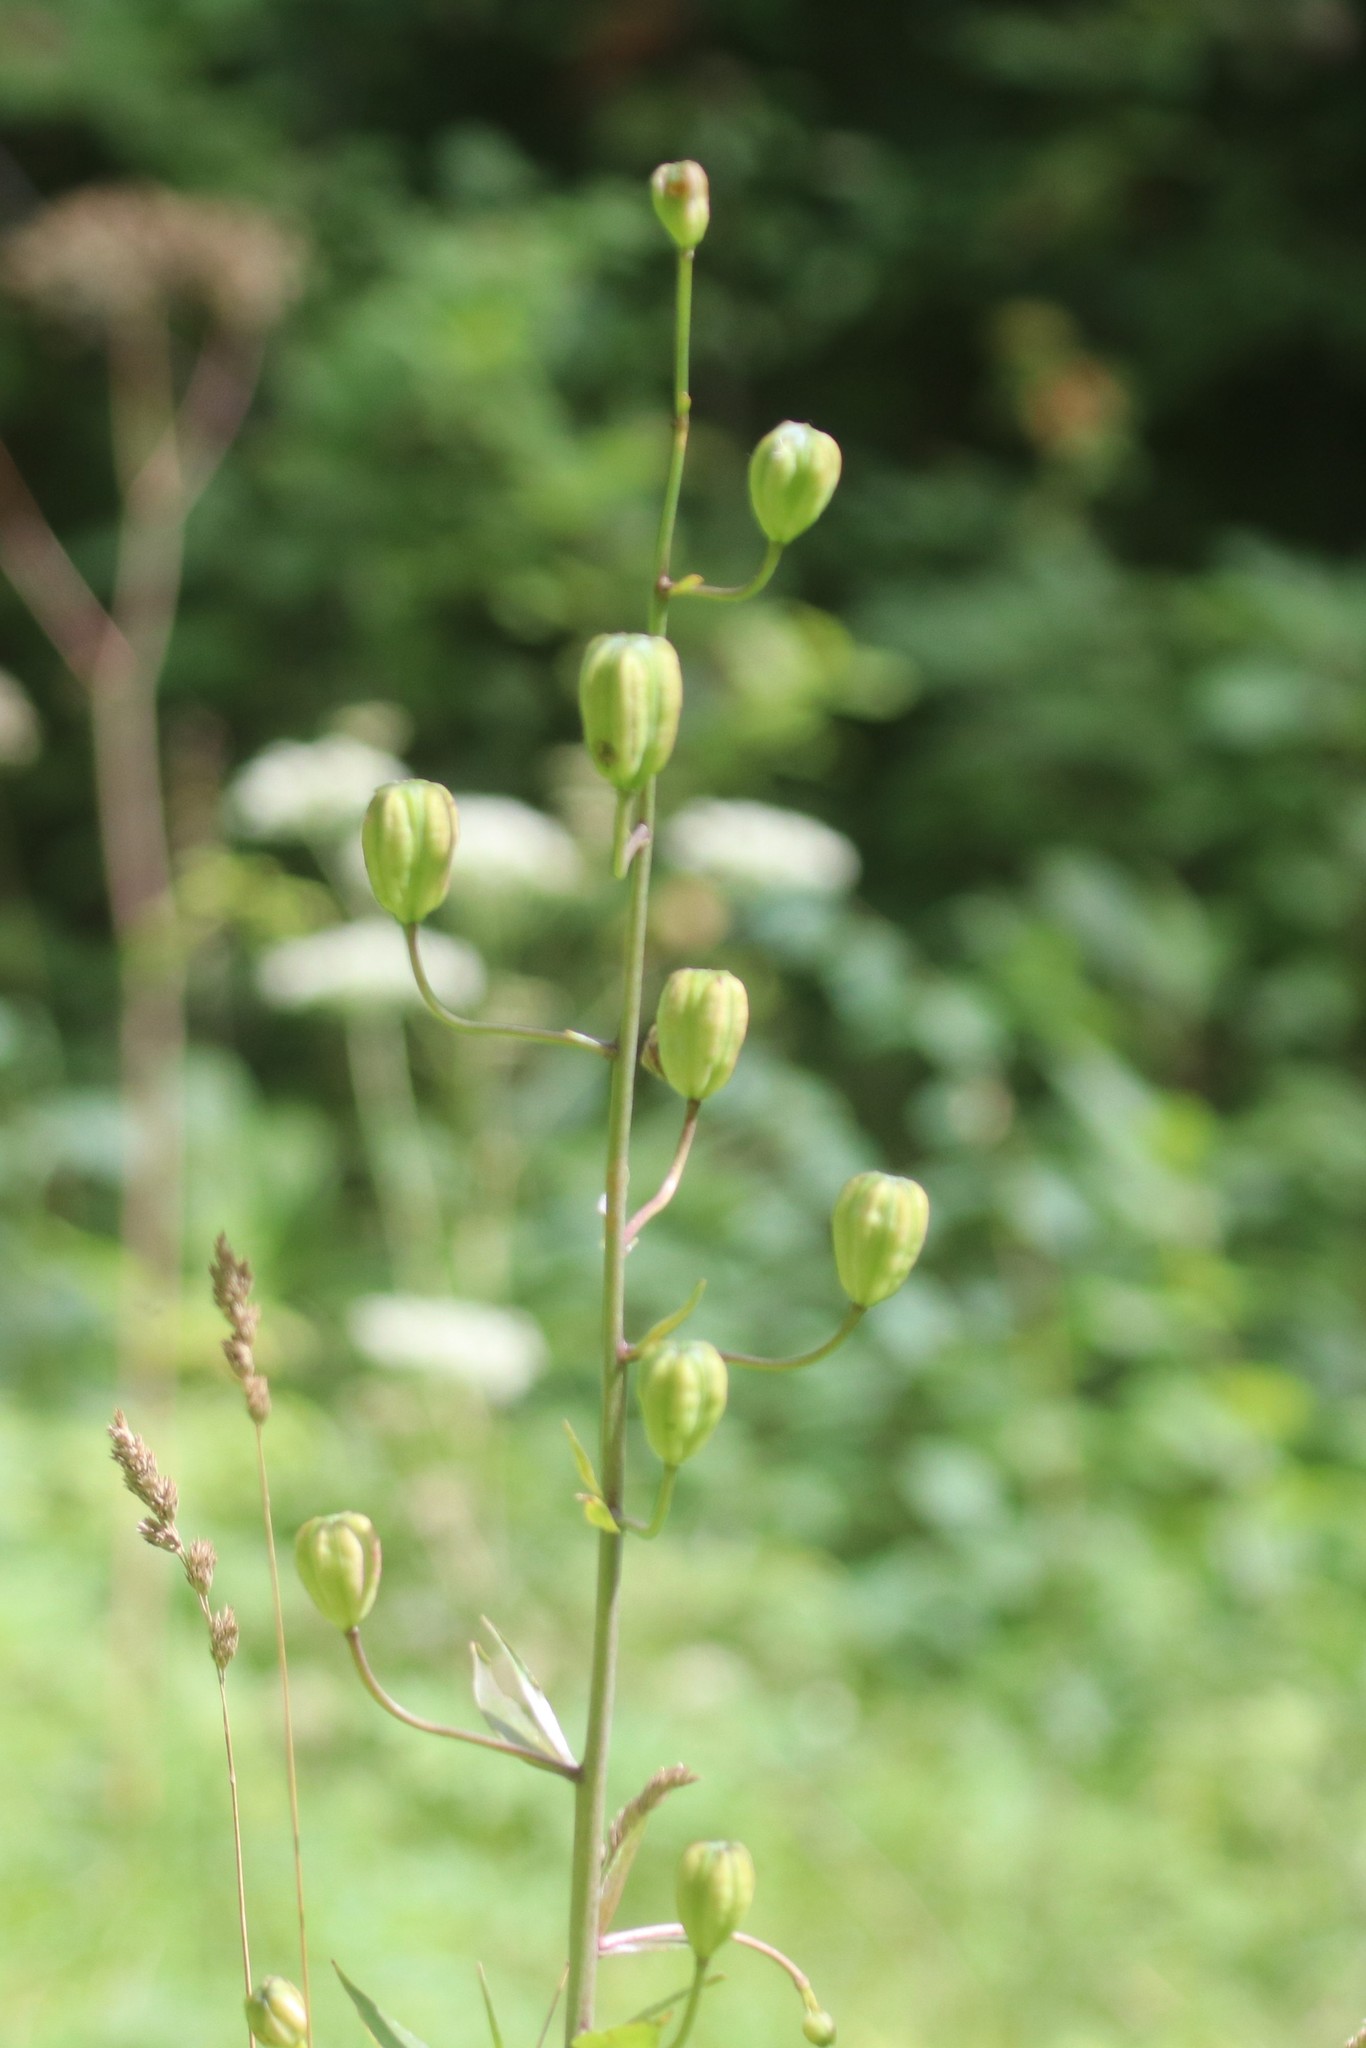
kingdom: Plantae
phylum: Tracheophyta
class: Liliopsida
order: Liliales
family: Liliaceae
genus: Lilium
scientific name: Lilium martagon
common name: Martagon lily
